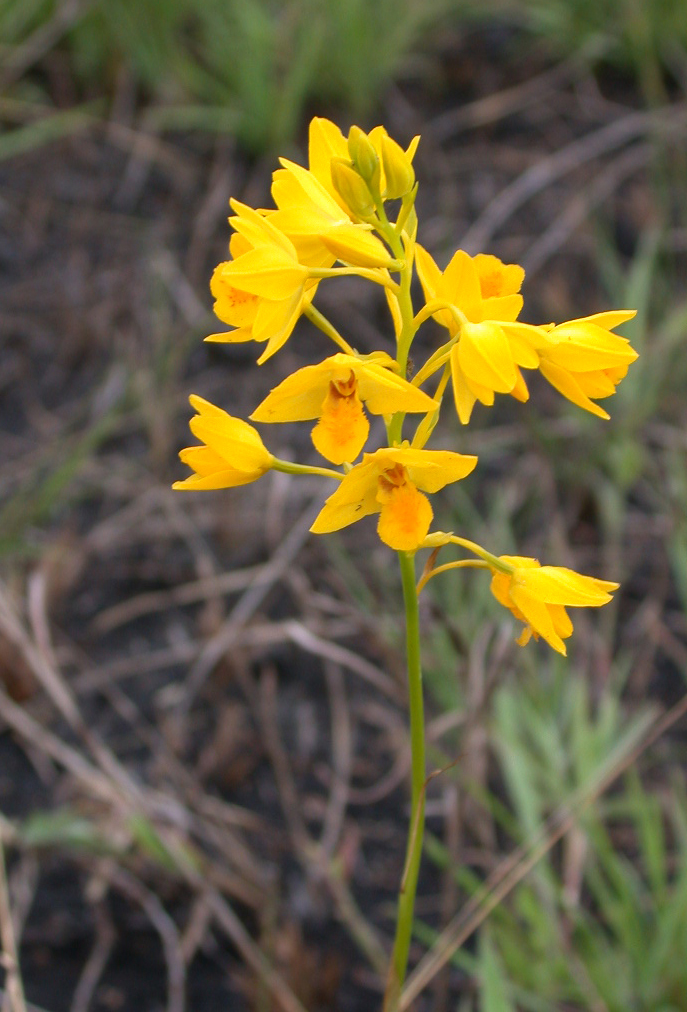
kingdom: Plantae
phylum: Tracheophyta
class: Liliopsida
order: Asparagales
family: Orchidaceae
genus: Eulophia
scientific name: Eulophia odontoglossa
